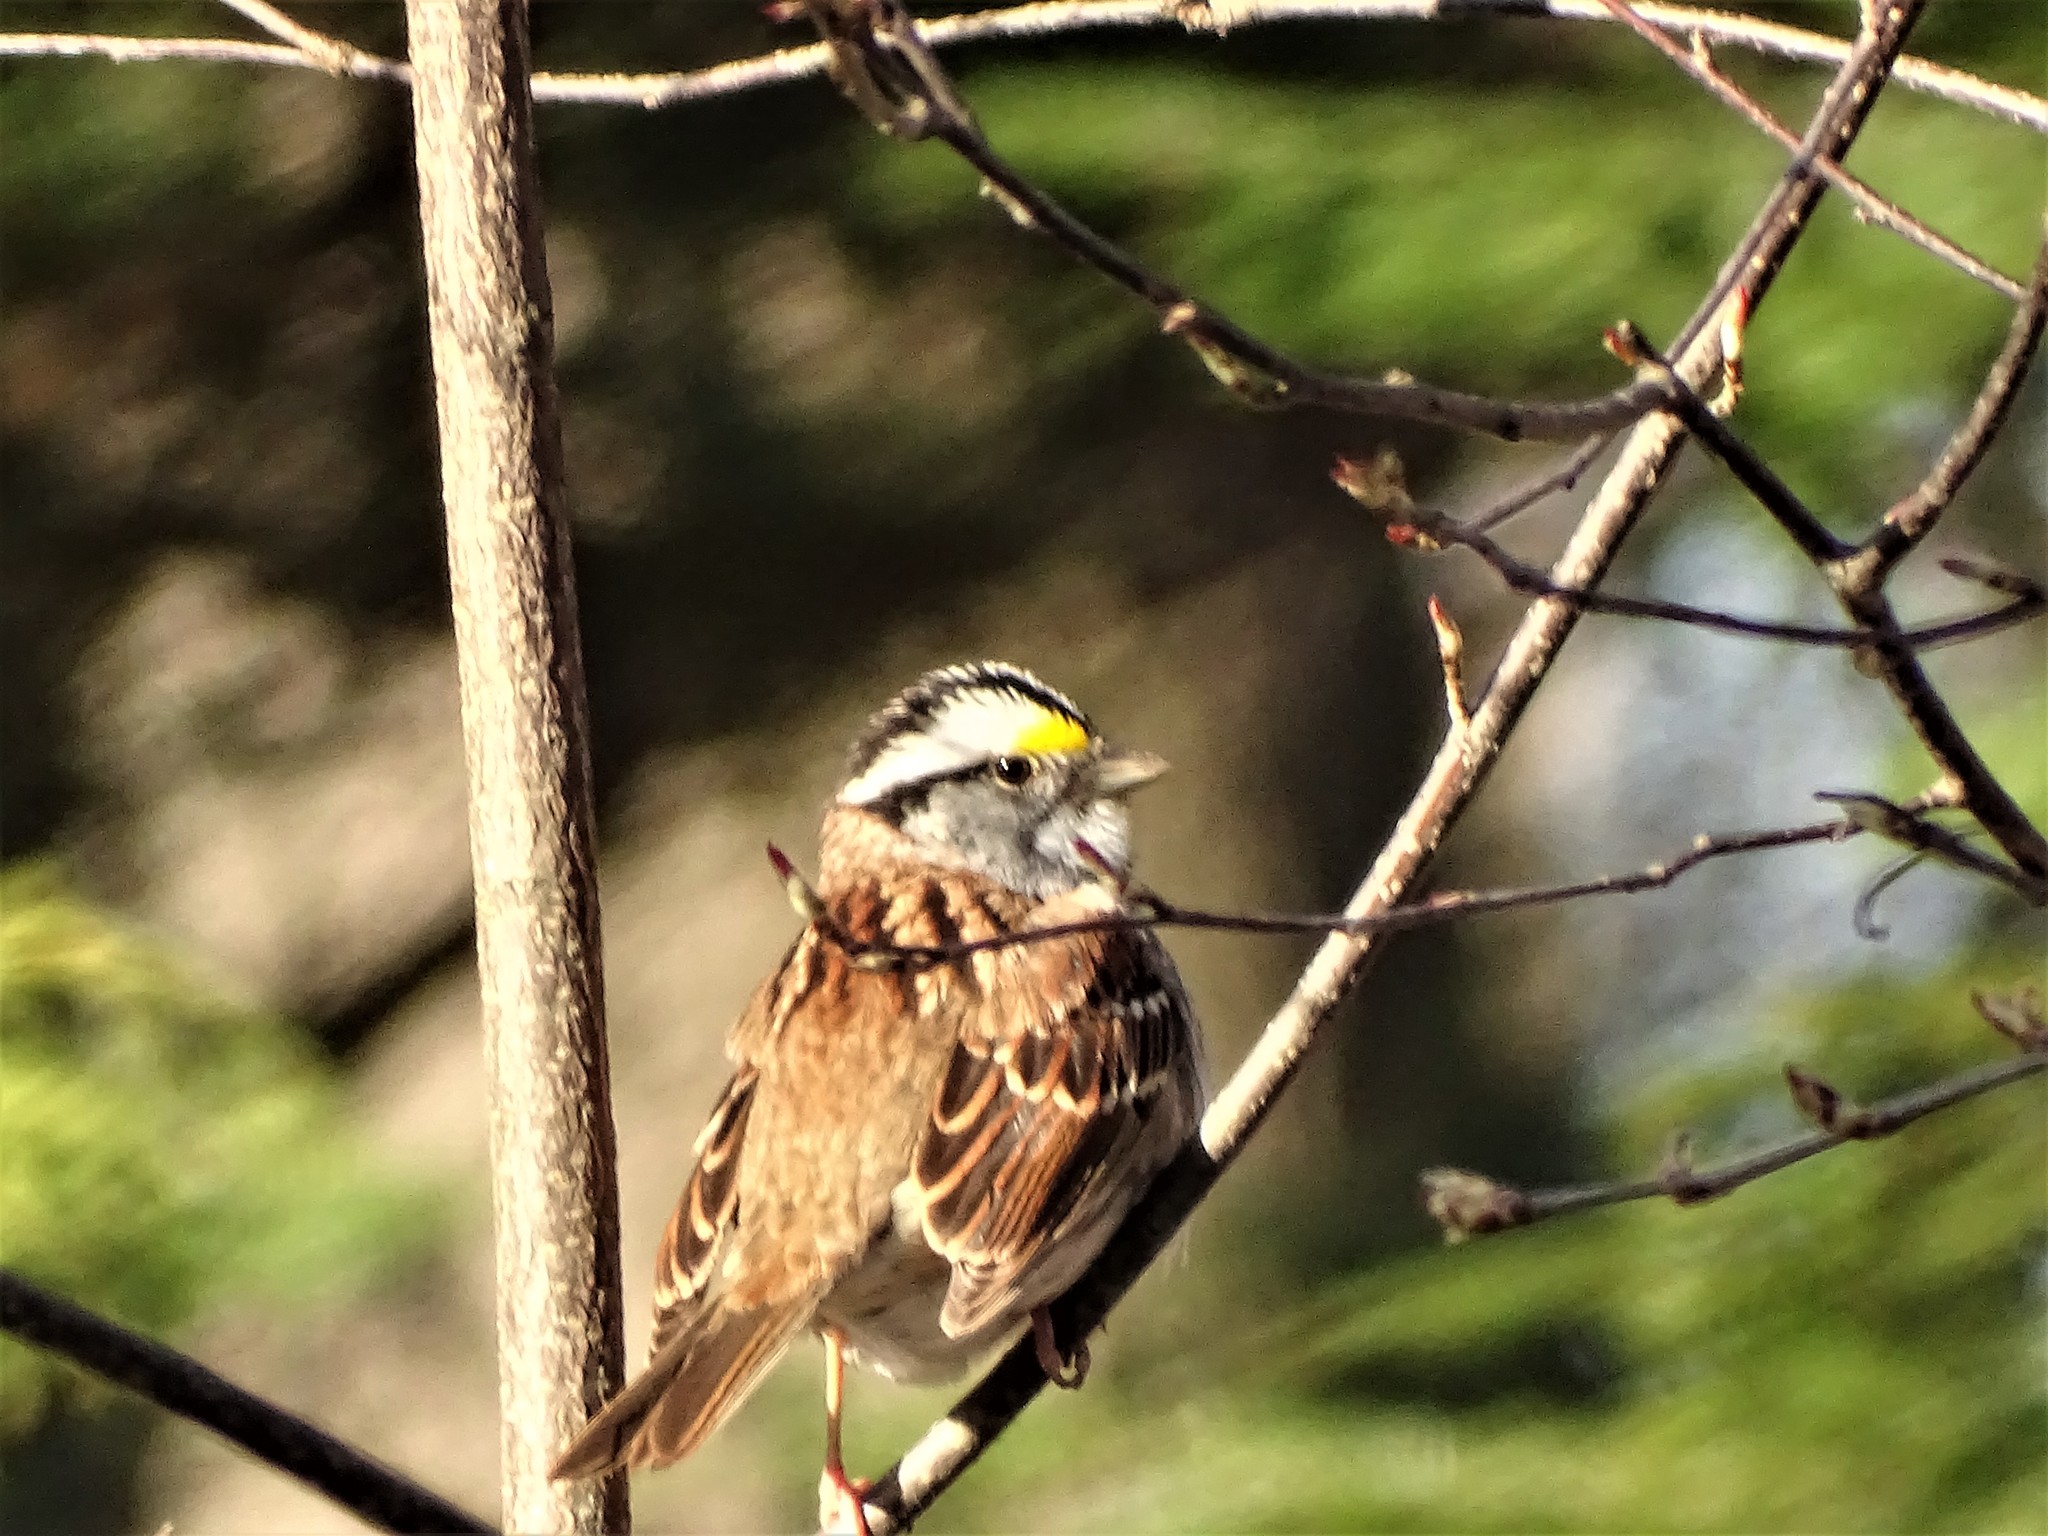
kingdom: Animalia
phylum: Chordata
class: Aves
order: Passeriformes
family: Passerellidae
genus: Zonotrichia
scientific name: Zonotrichia albicollis
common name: White-throated sparrow
